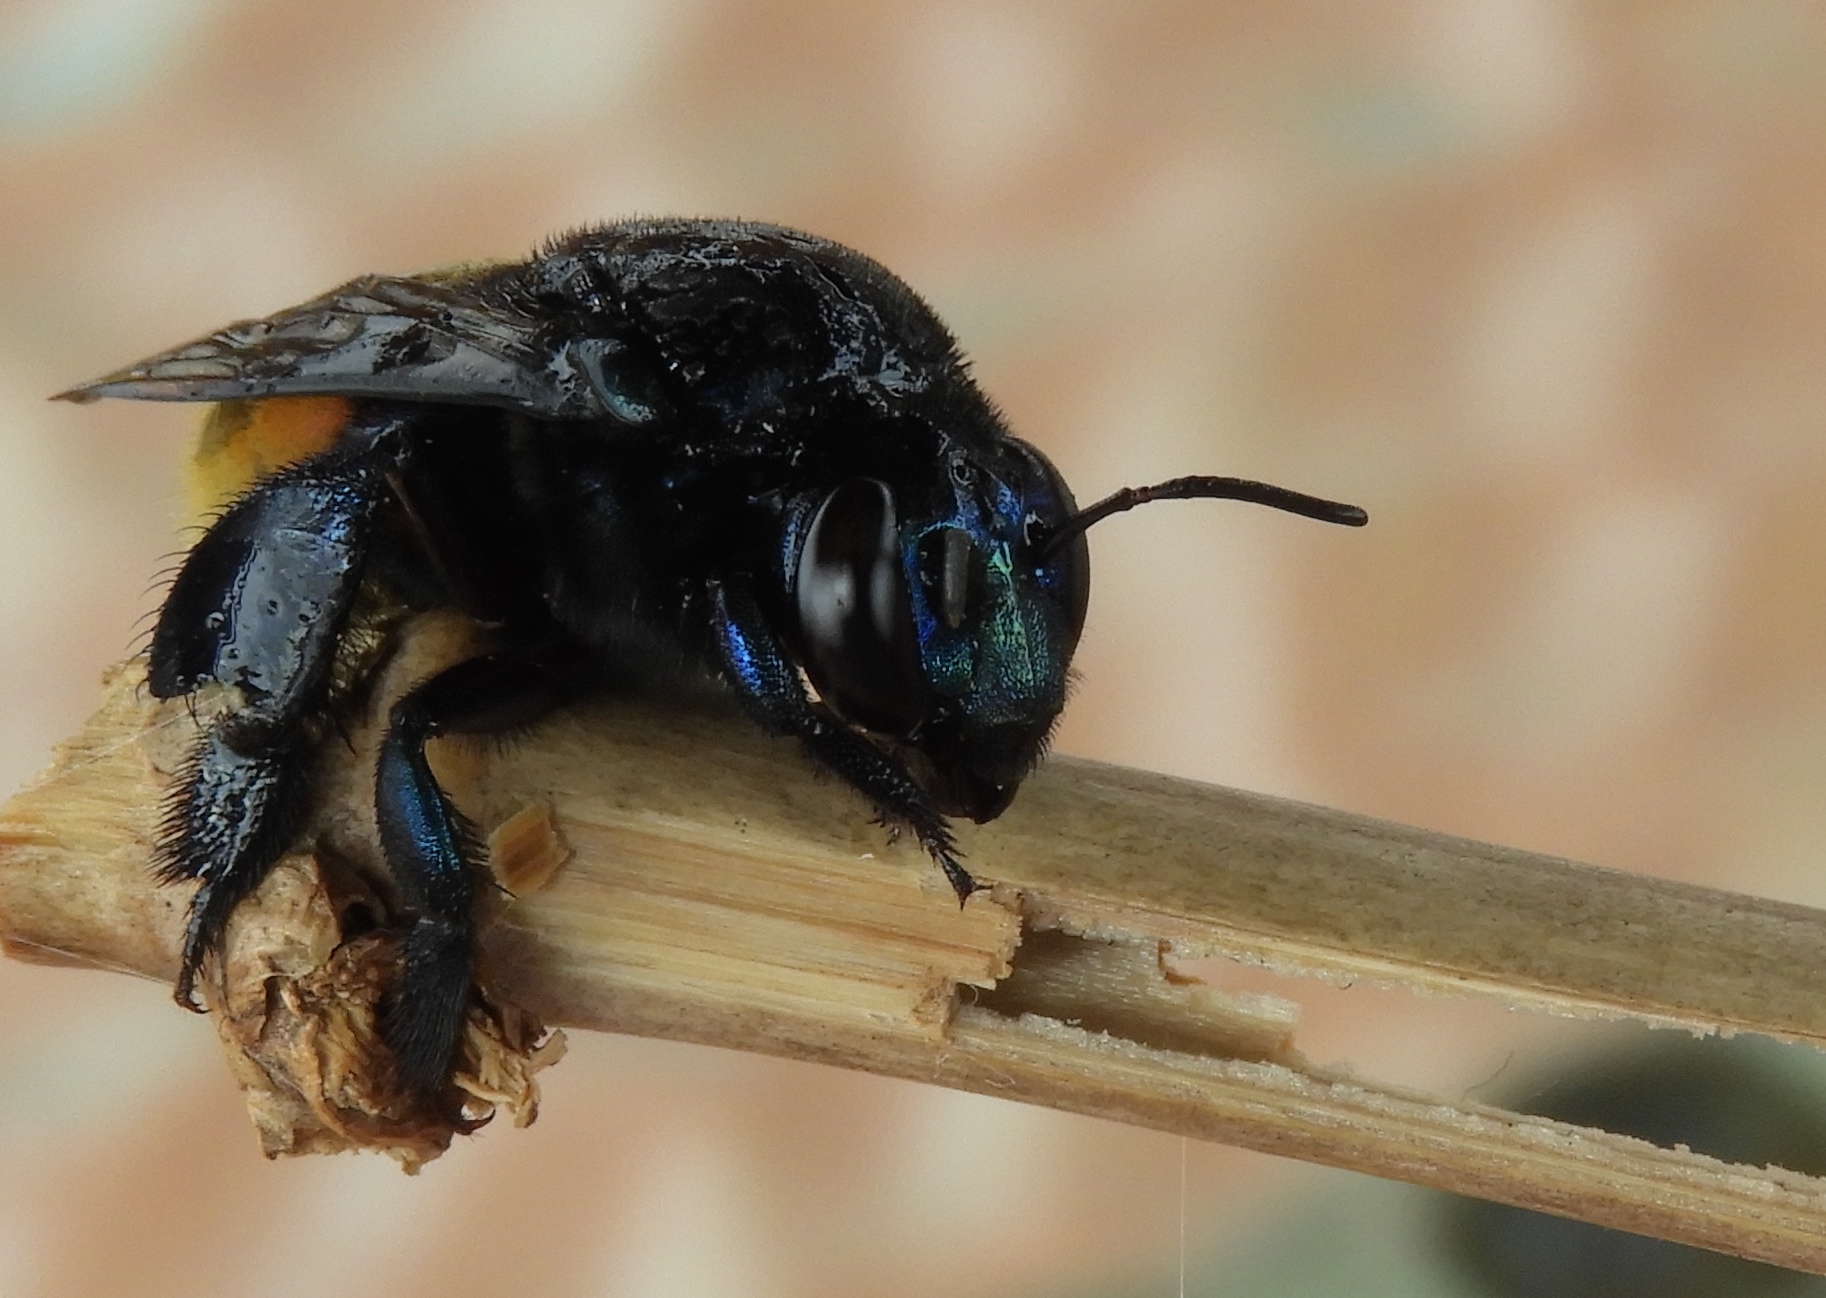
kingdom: Animalia
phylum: Arthropoda
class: Insecta
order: Hymenoptera
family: Apidae
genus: Eufriesea
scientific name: Eufriesea
